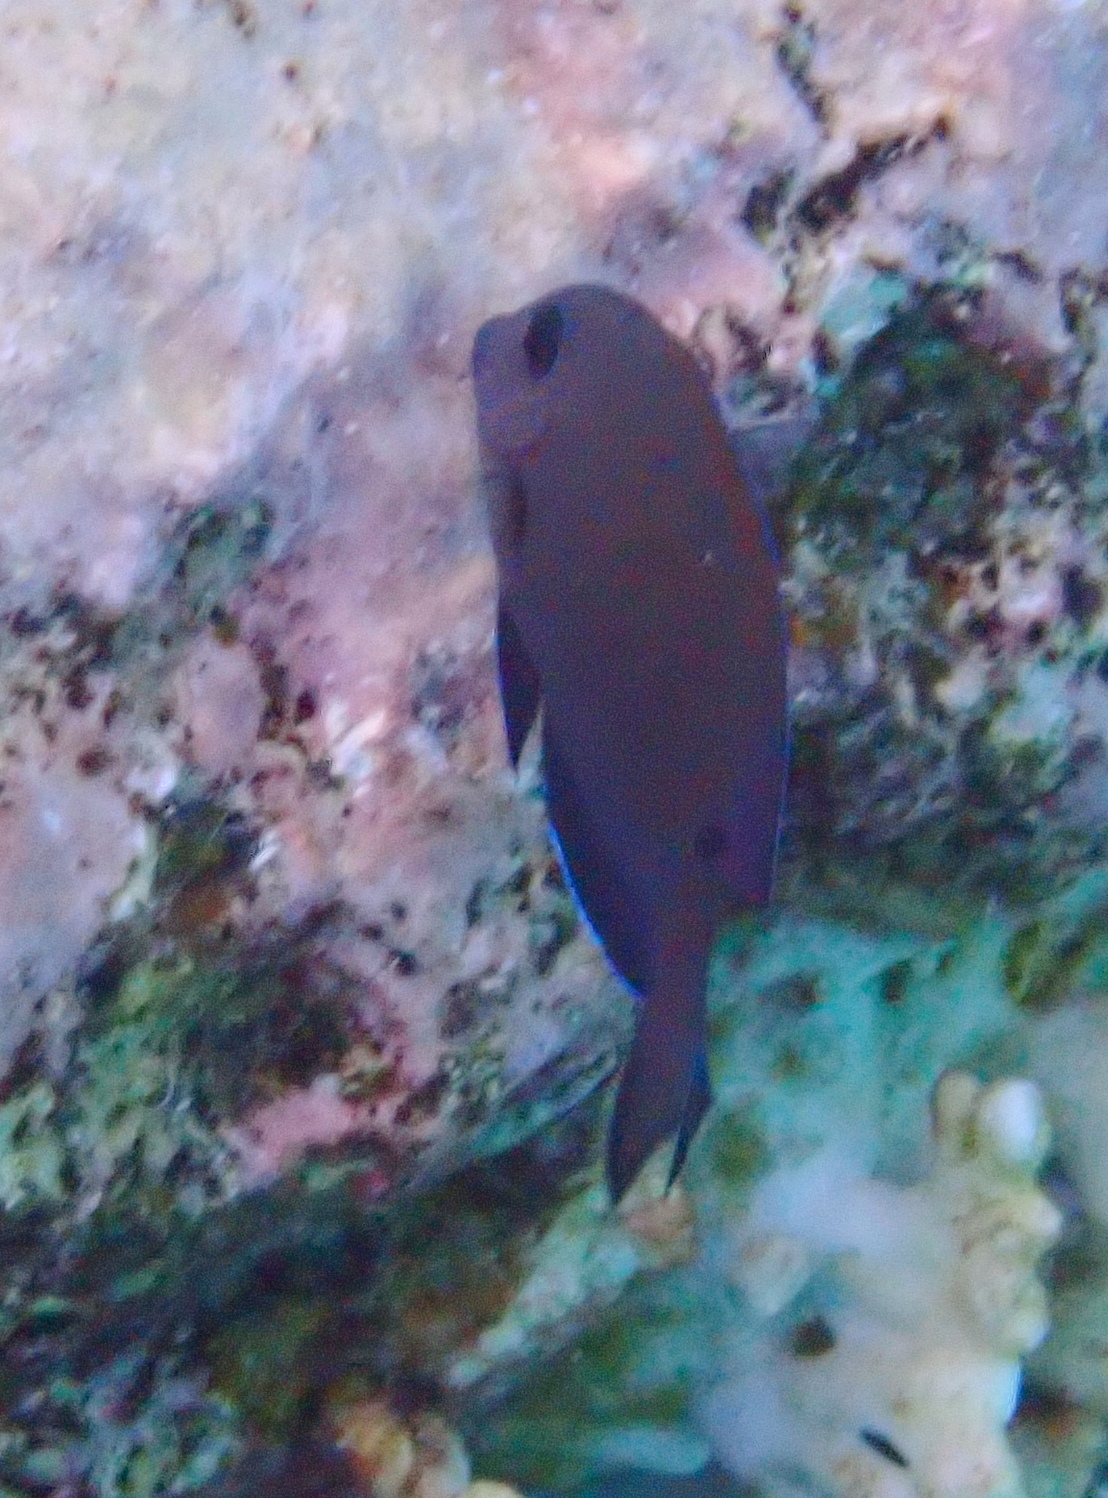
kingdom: Animalia
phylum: Chordata
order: Perciformes
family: Acanthuridae
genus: Acanthurus
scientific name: Acanthurus nigrofuscus
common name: Blackspot surgeonfish
